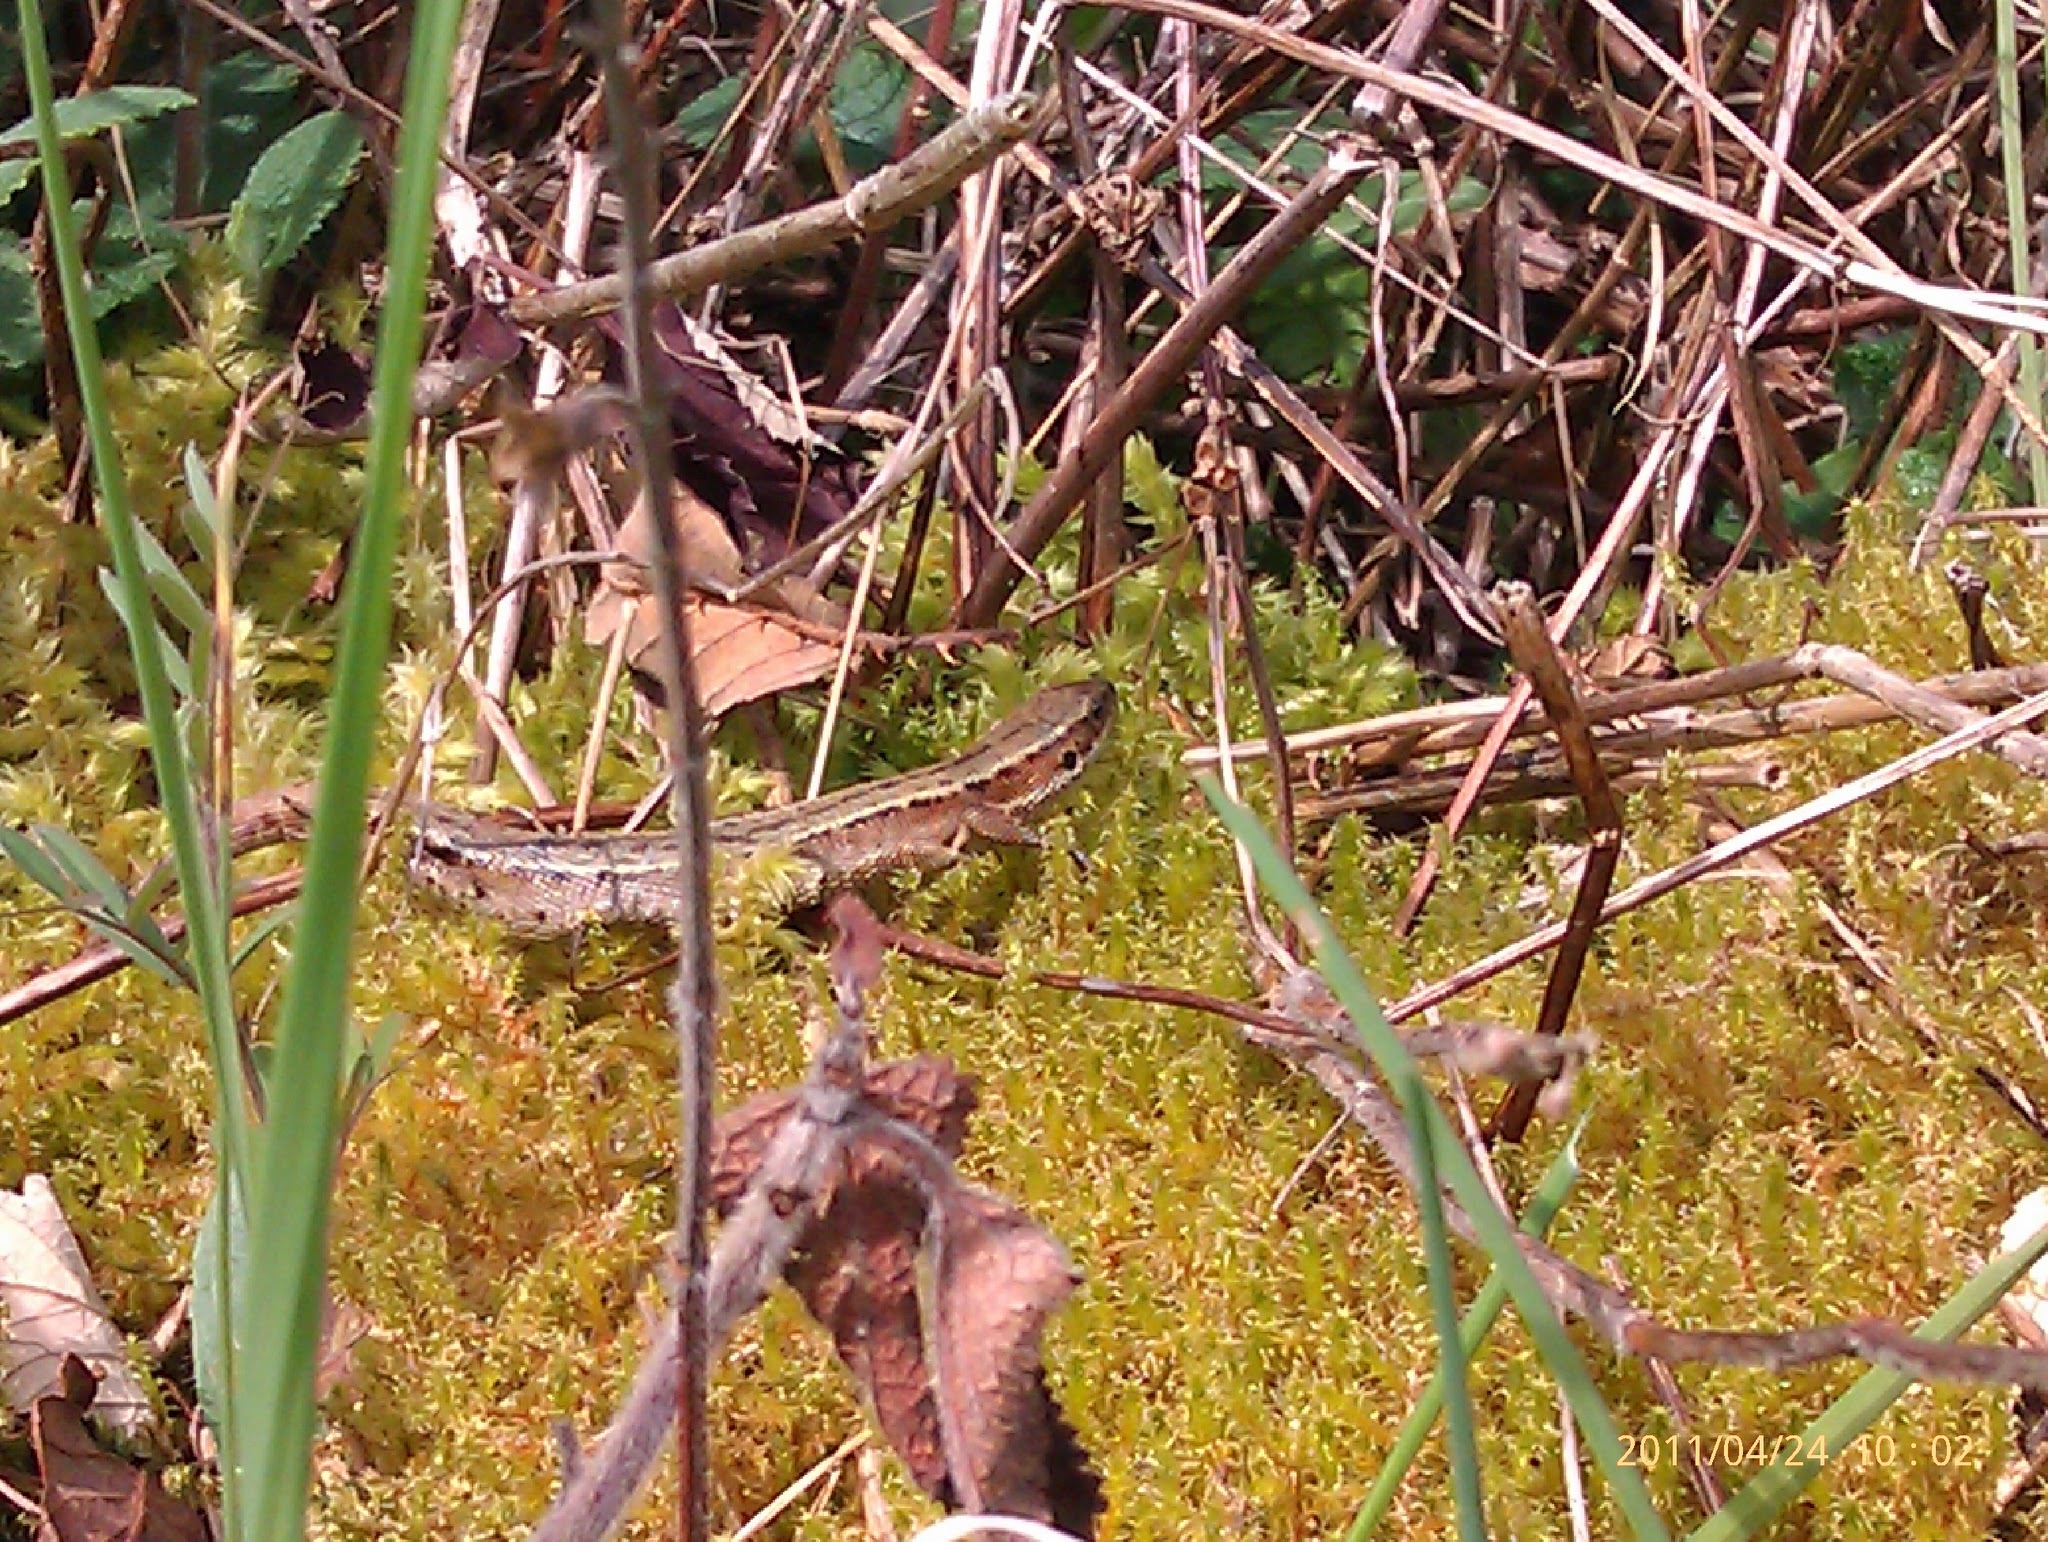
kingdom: Animalia
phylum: Chordata
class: Squamata
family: Lacertidae
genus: Zootoca
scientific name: Zootoca vivipara
